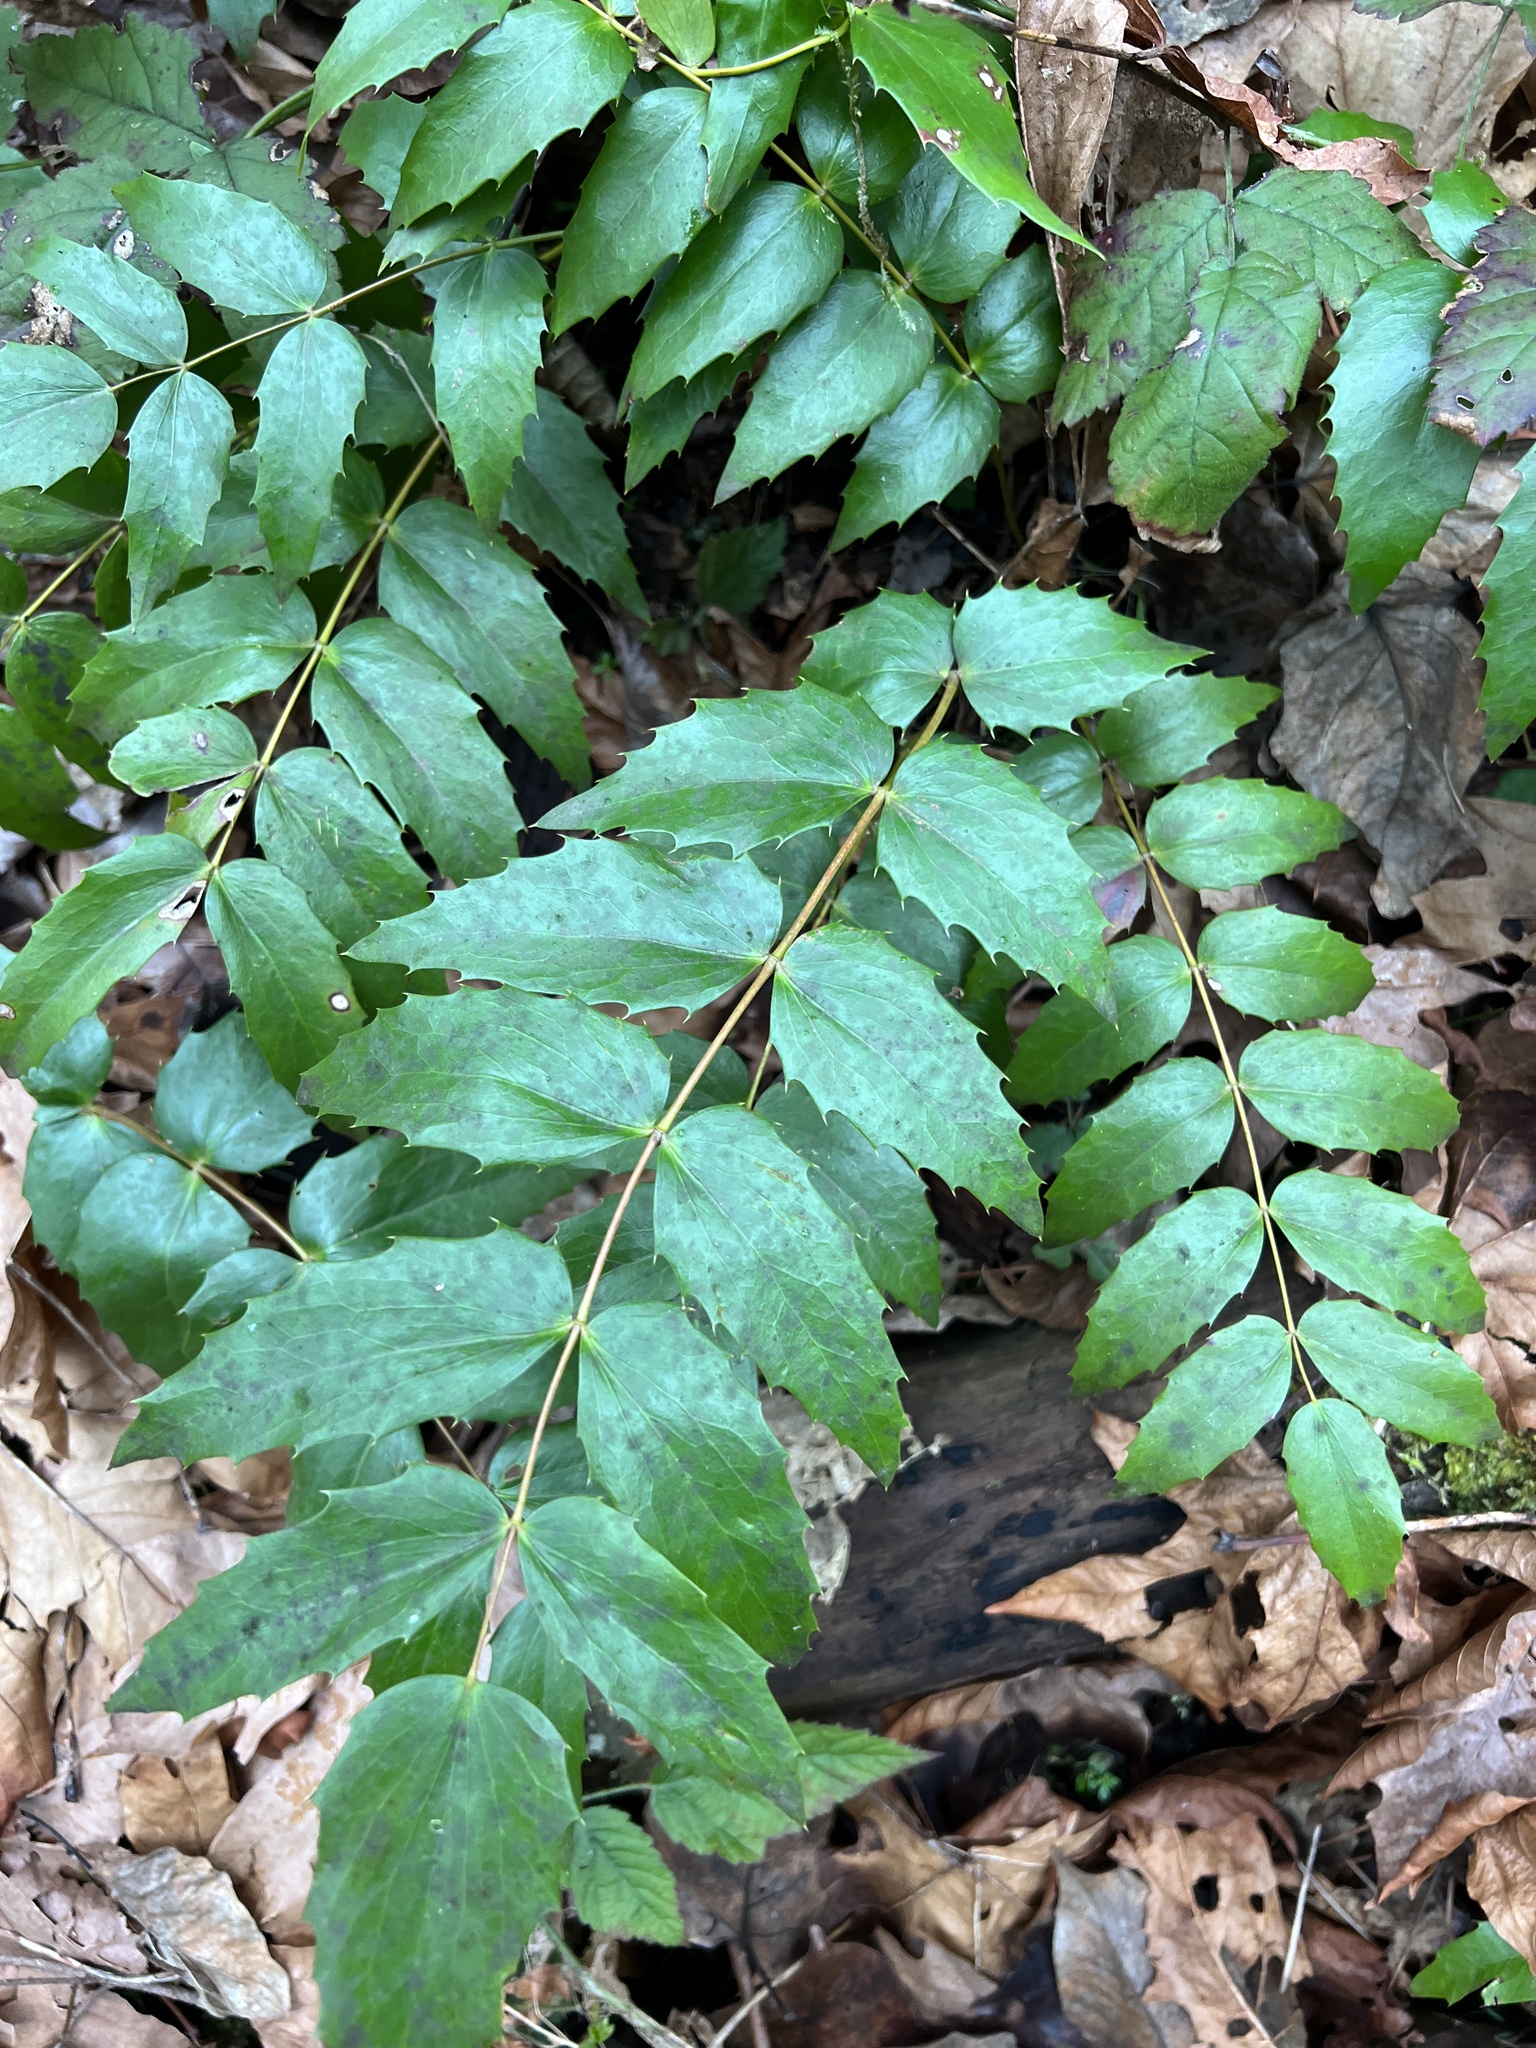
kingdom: Plantae
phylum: Tracheophyta
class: Magnoliopsida
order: Ranunculales
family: Berberidaceae
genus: Mahonia
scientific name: Mahonia nervosa
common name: Cascade oregon-grape
